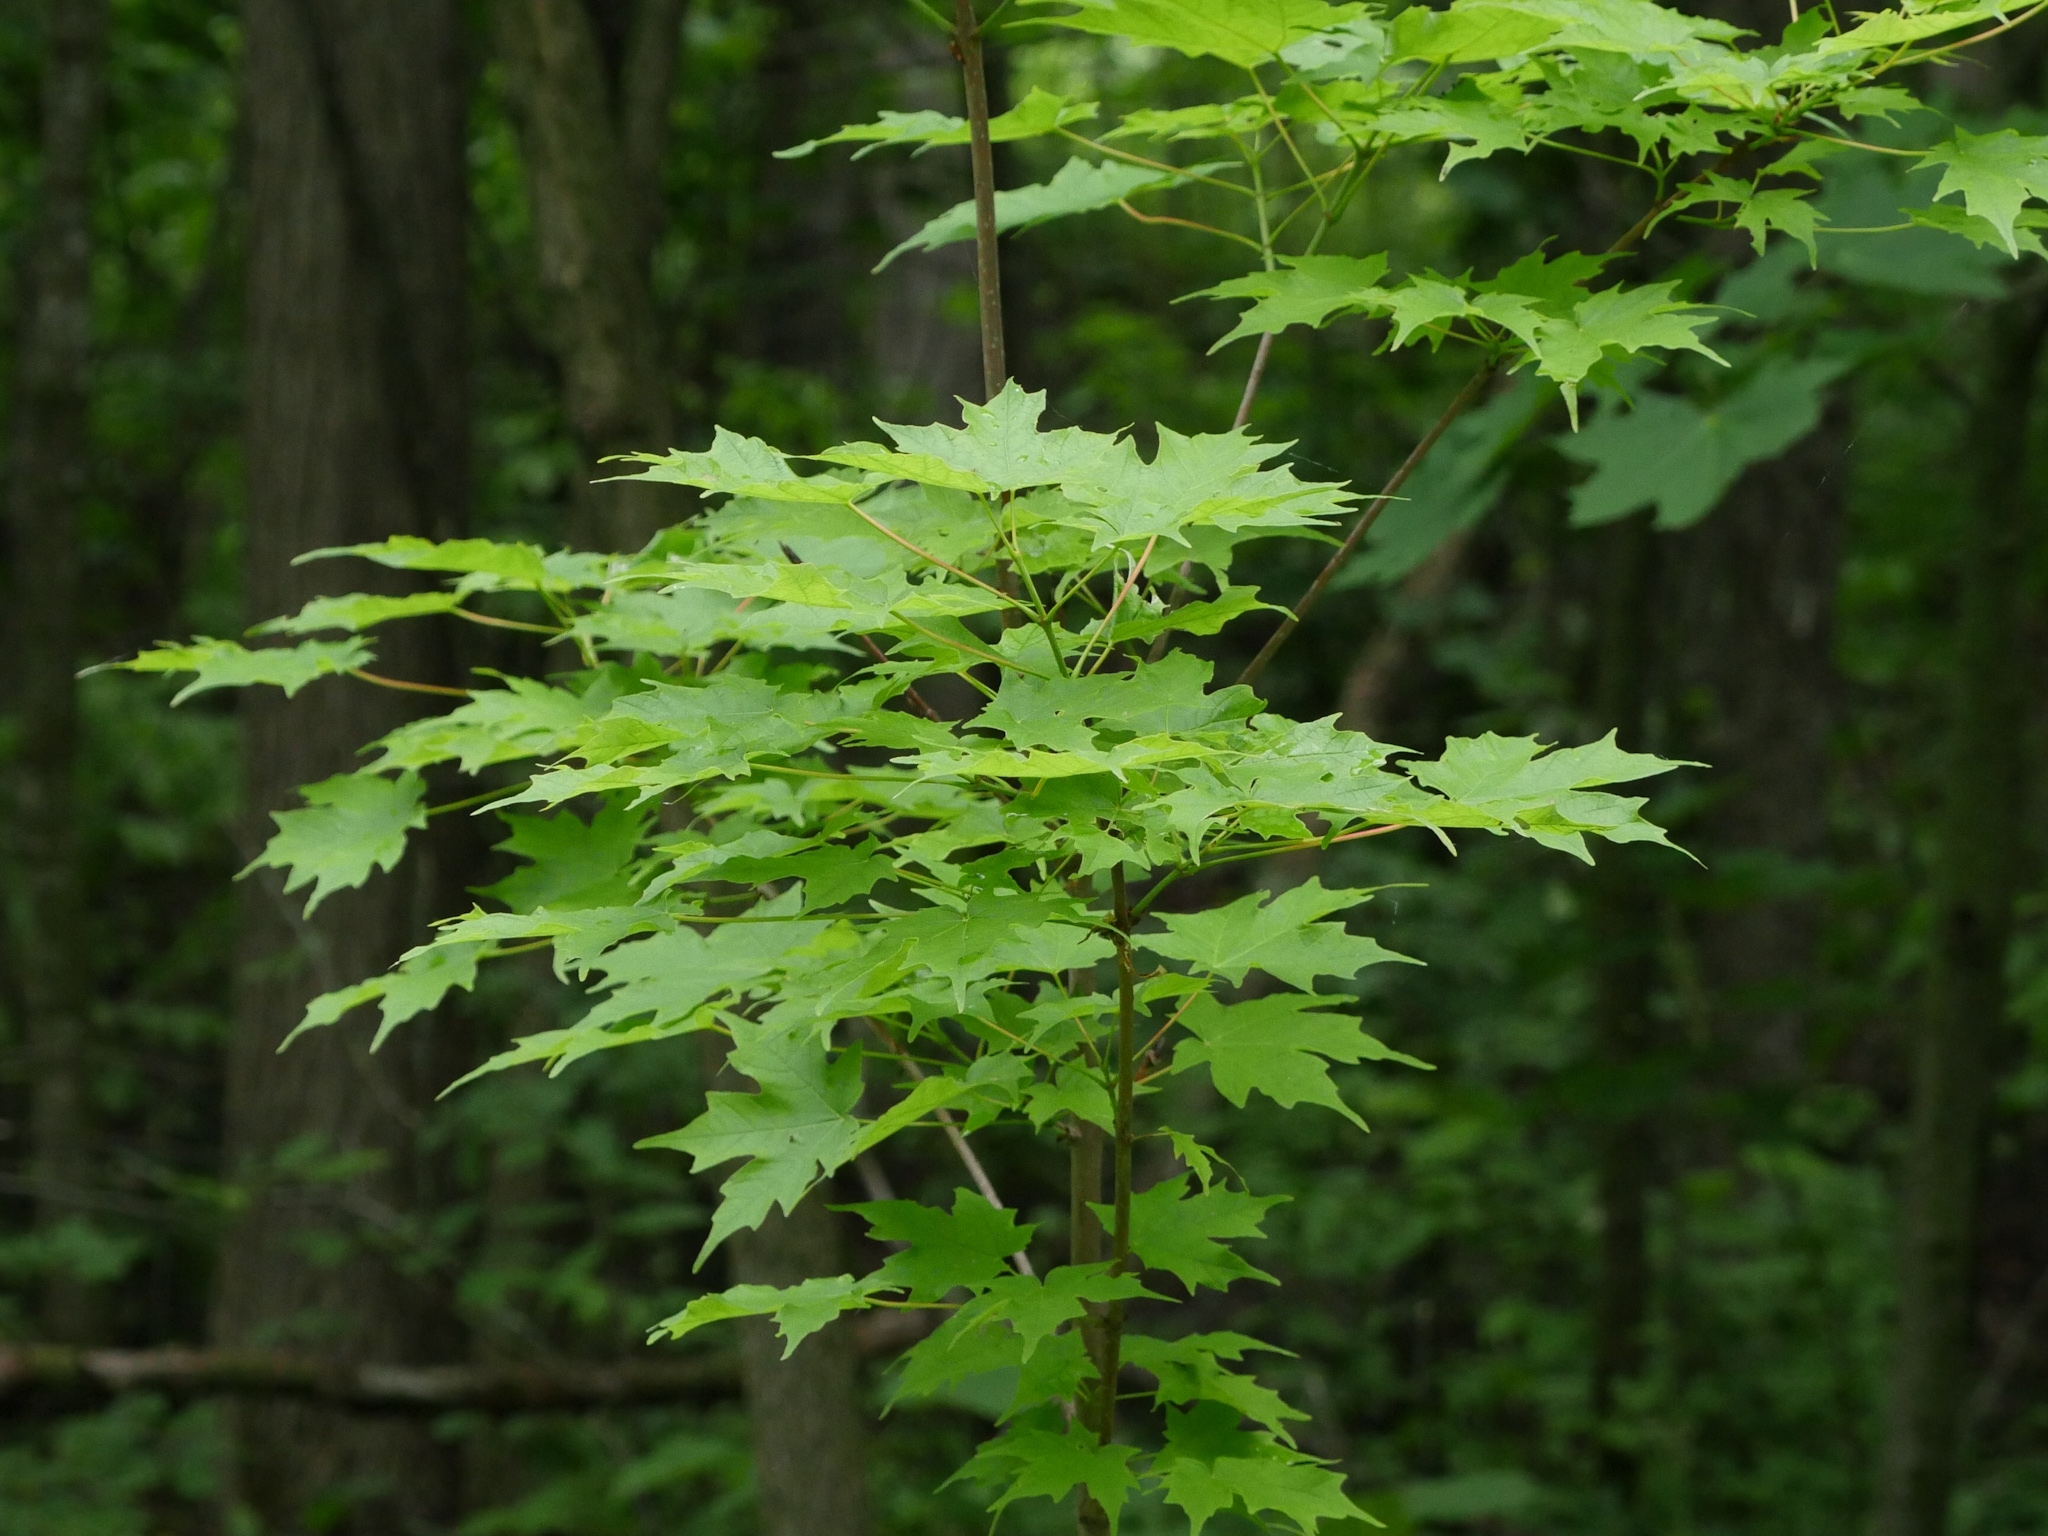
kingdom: Plantae
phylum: Tracheophyta
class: Magnoliopsida
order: Sapindales
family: Sapindaceae
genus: Acer
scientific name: Acer saccharum
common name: Sugar maple
